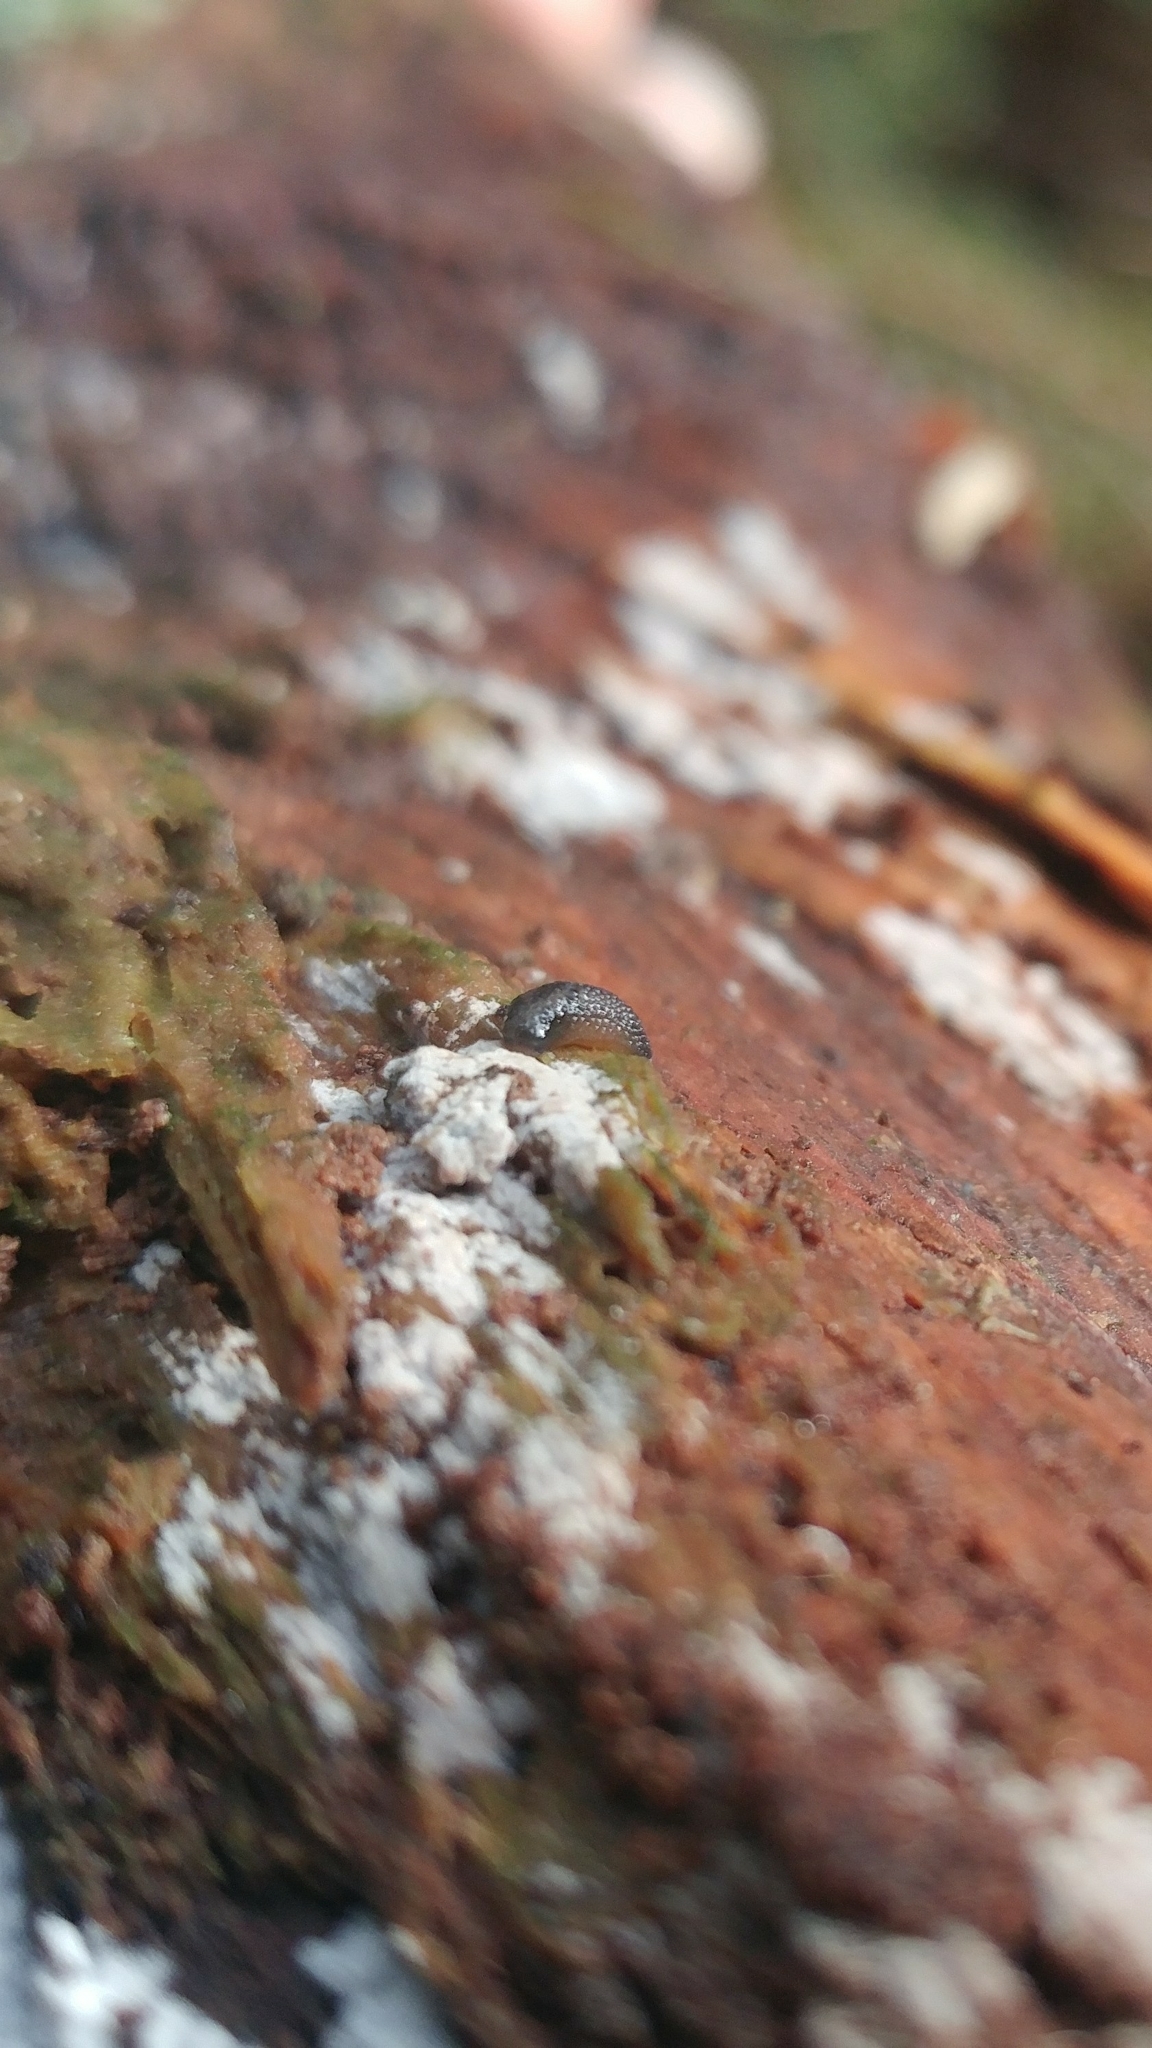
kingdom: Animalia
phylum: Mollusca
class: Gastropoda
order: Stylommatophora
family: Arionidae
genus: Arion
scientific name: Arion intermedius
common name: Hedgehog slug
